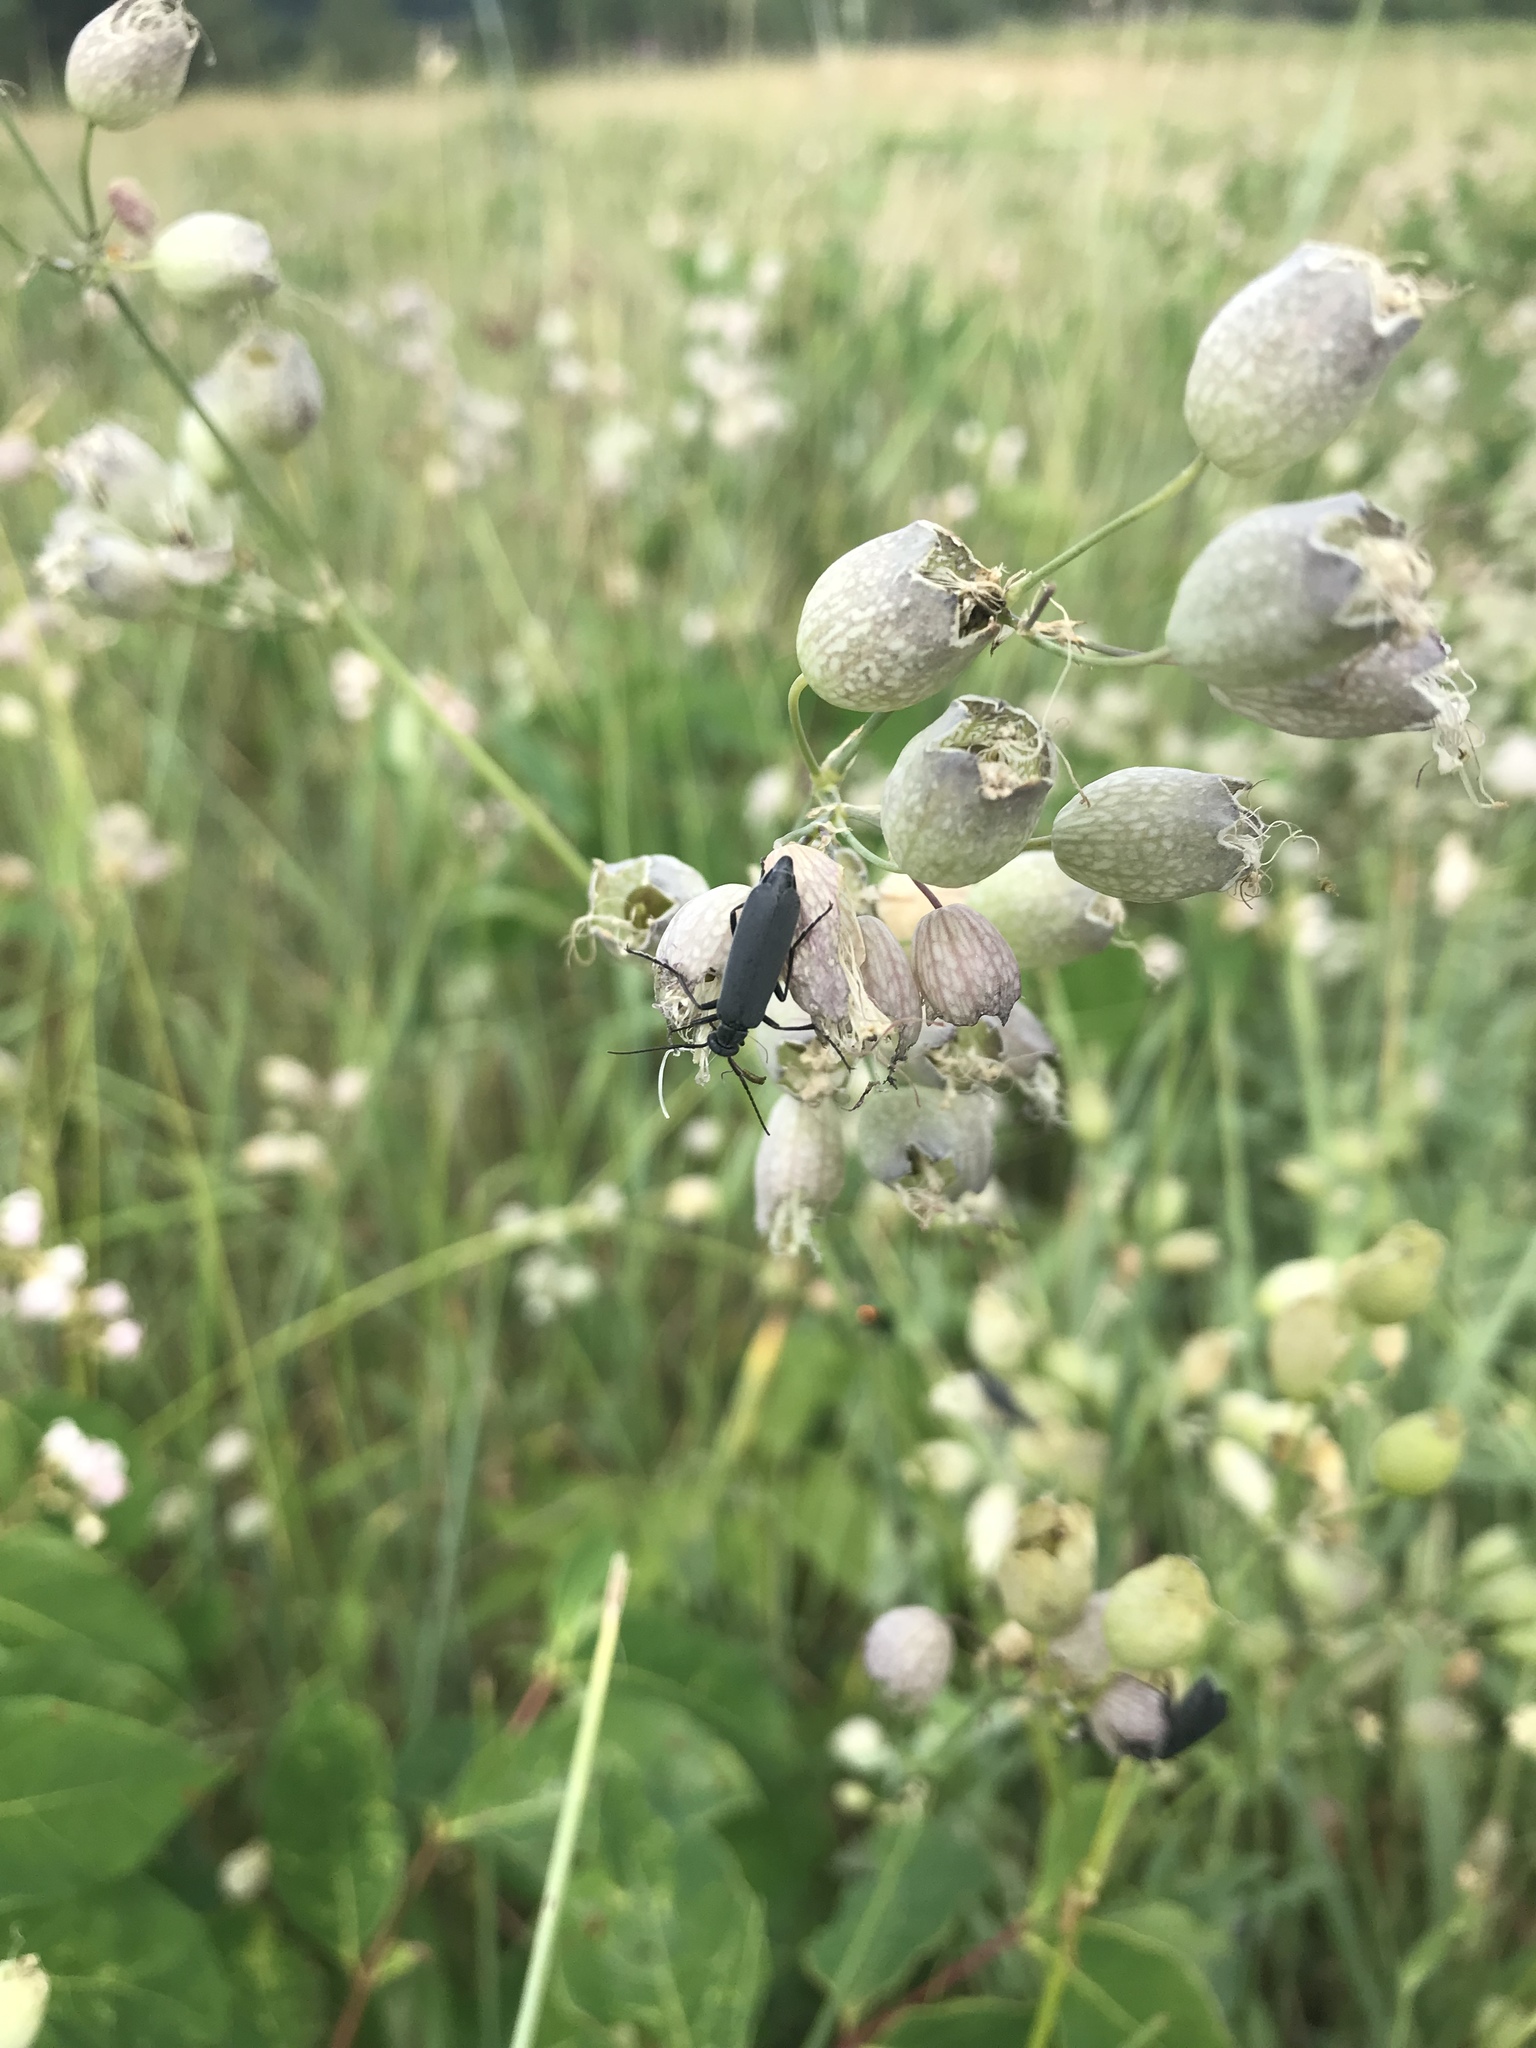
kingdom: Plantae
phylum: Tracheophyta
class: Magnoliopsida
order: Caryophyllales
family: Caryophyllaceae
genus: Silene
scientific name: Silene vulgaris
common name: Bladder campion
